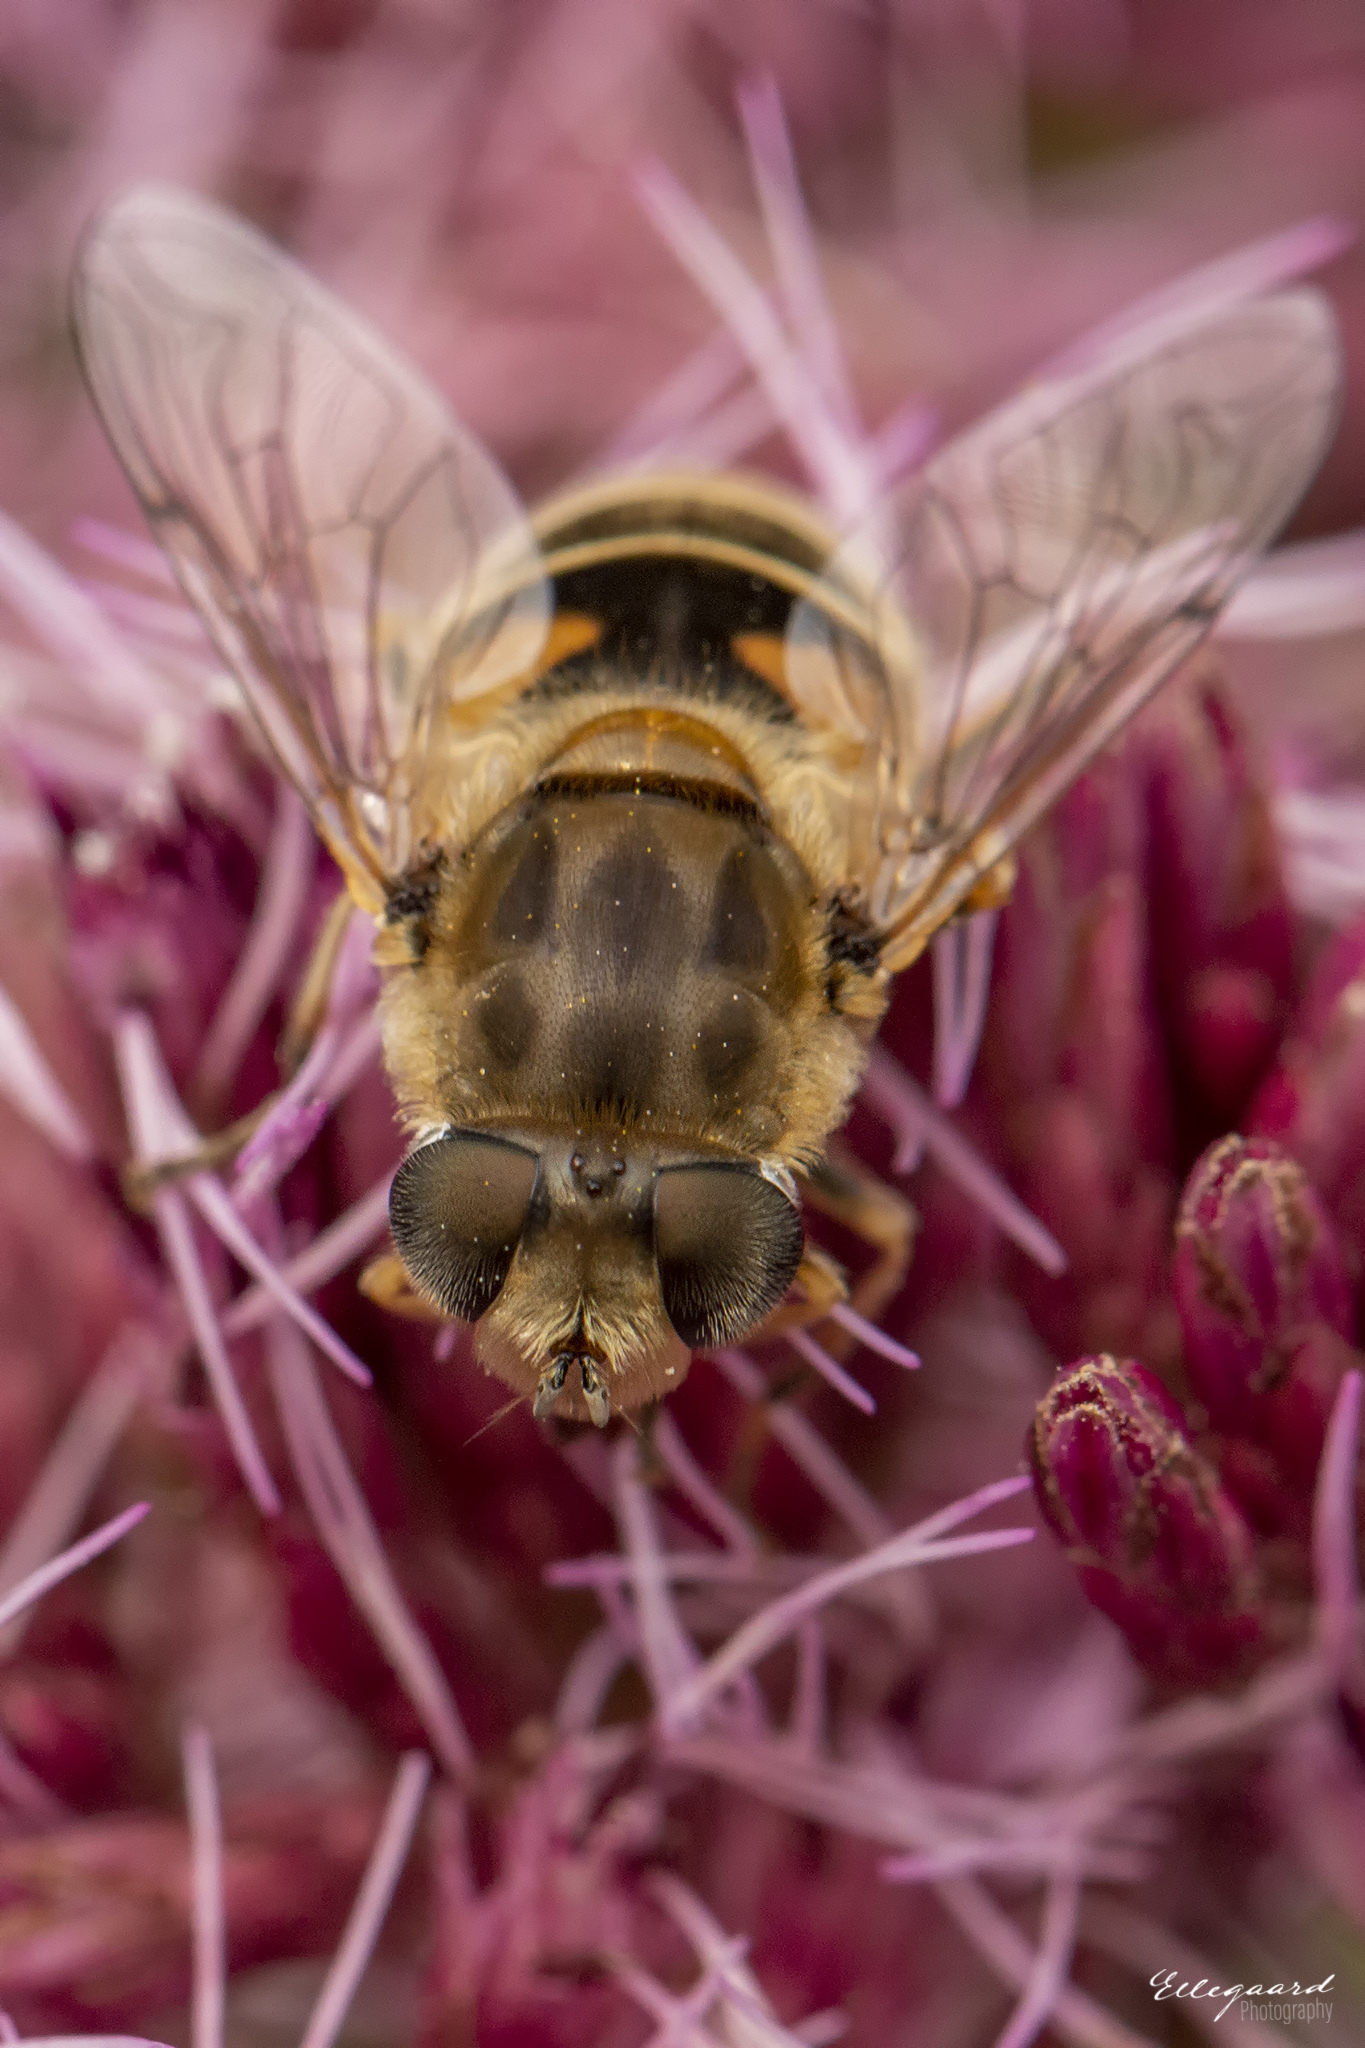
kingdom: Animalia
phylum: Arthropoda
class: Insecta
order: Diptera
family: Syrphidae
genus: Eristalis
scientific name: Eristalis arbustorum
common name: Hover fly
